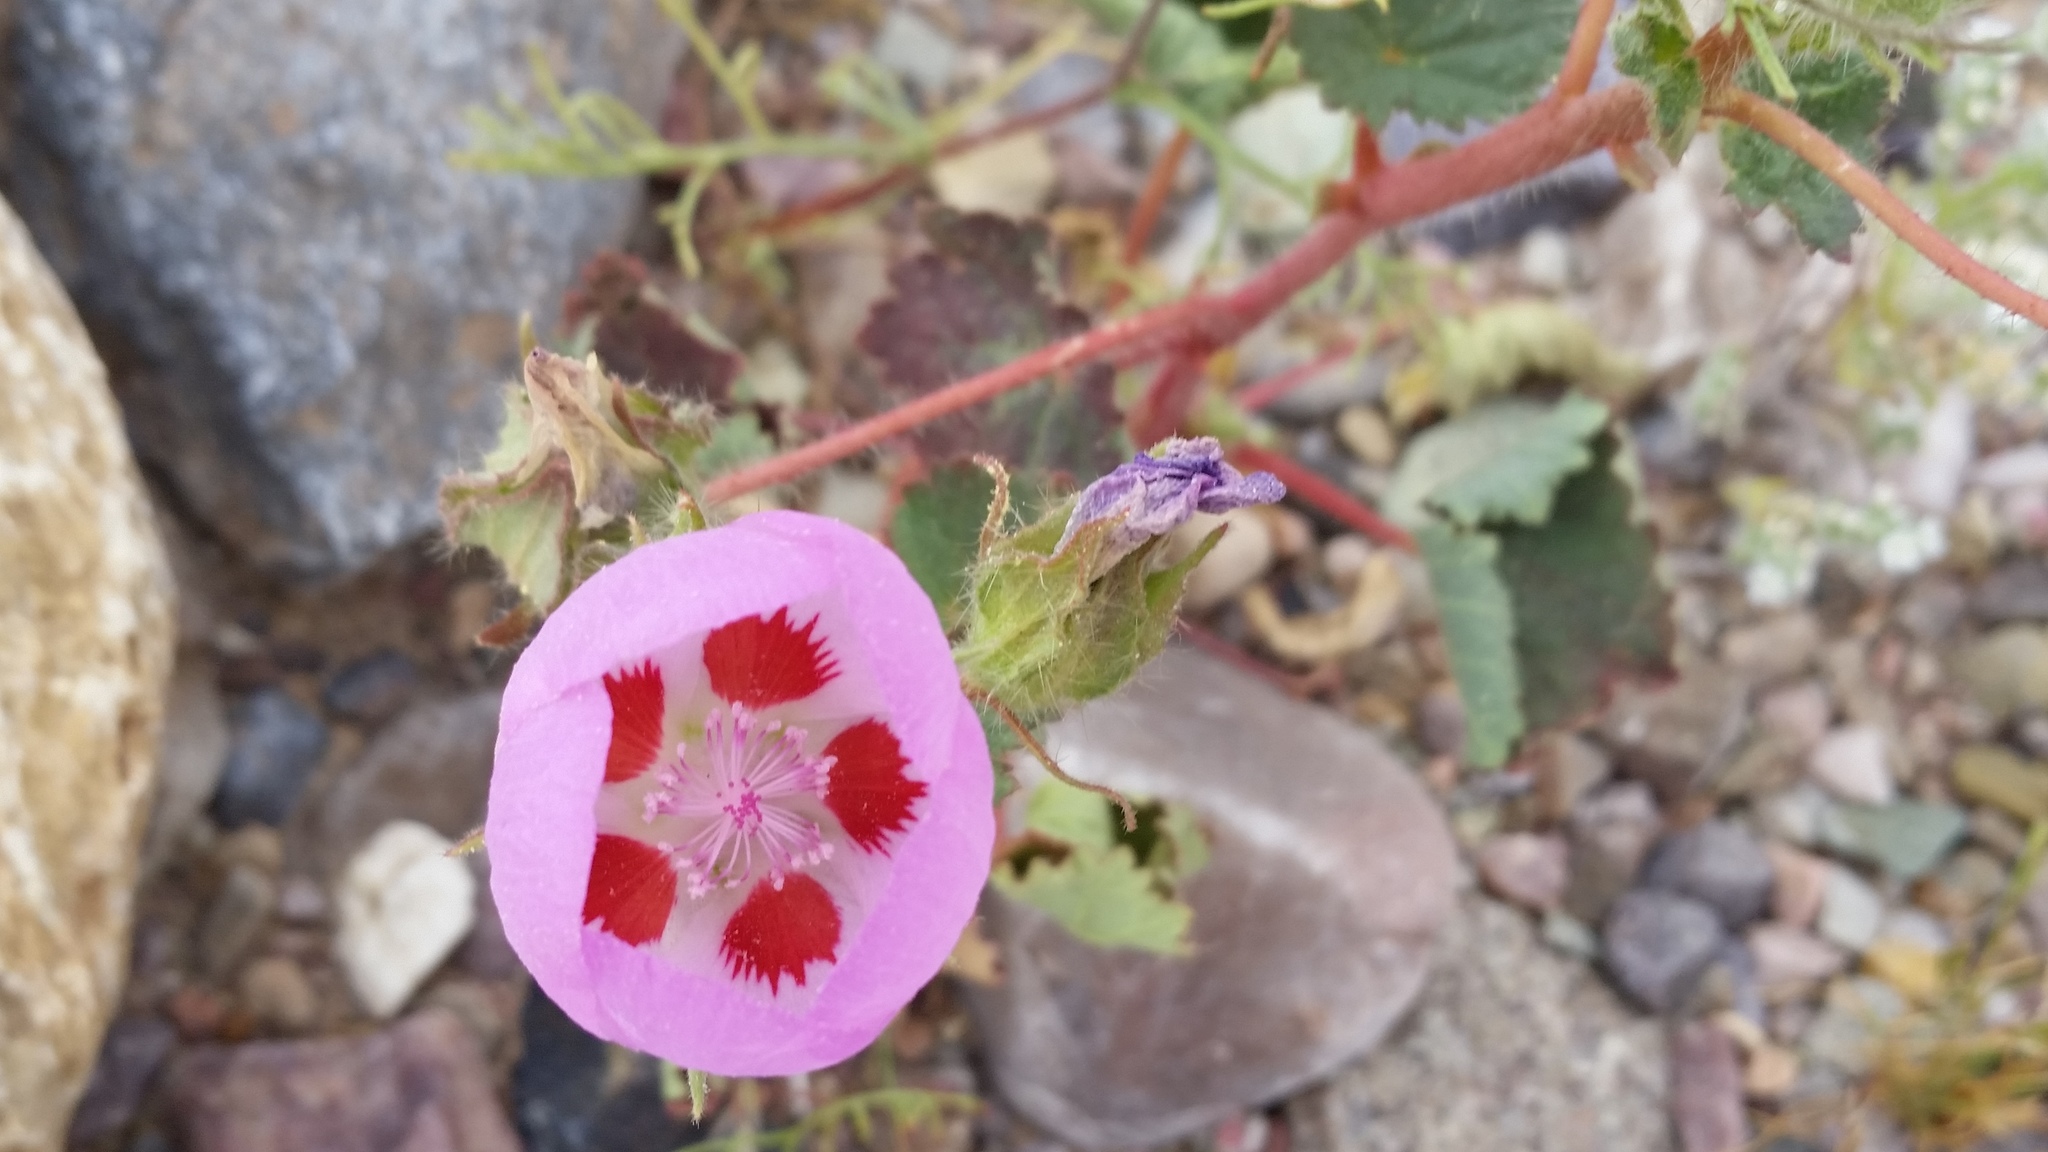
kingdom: Plantae
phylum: Tracheophyta
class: Magnoliopsida
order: Malvales
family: Malvaceae
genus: Eremalche
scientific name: Eremalche rotundifolia
